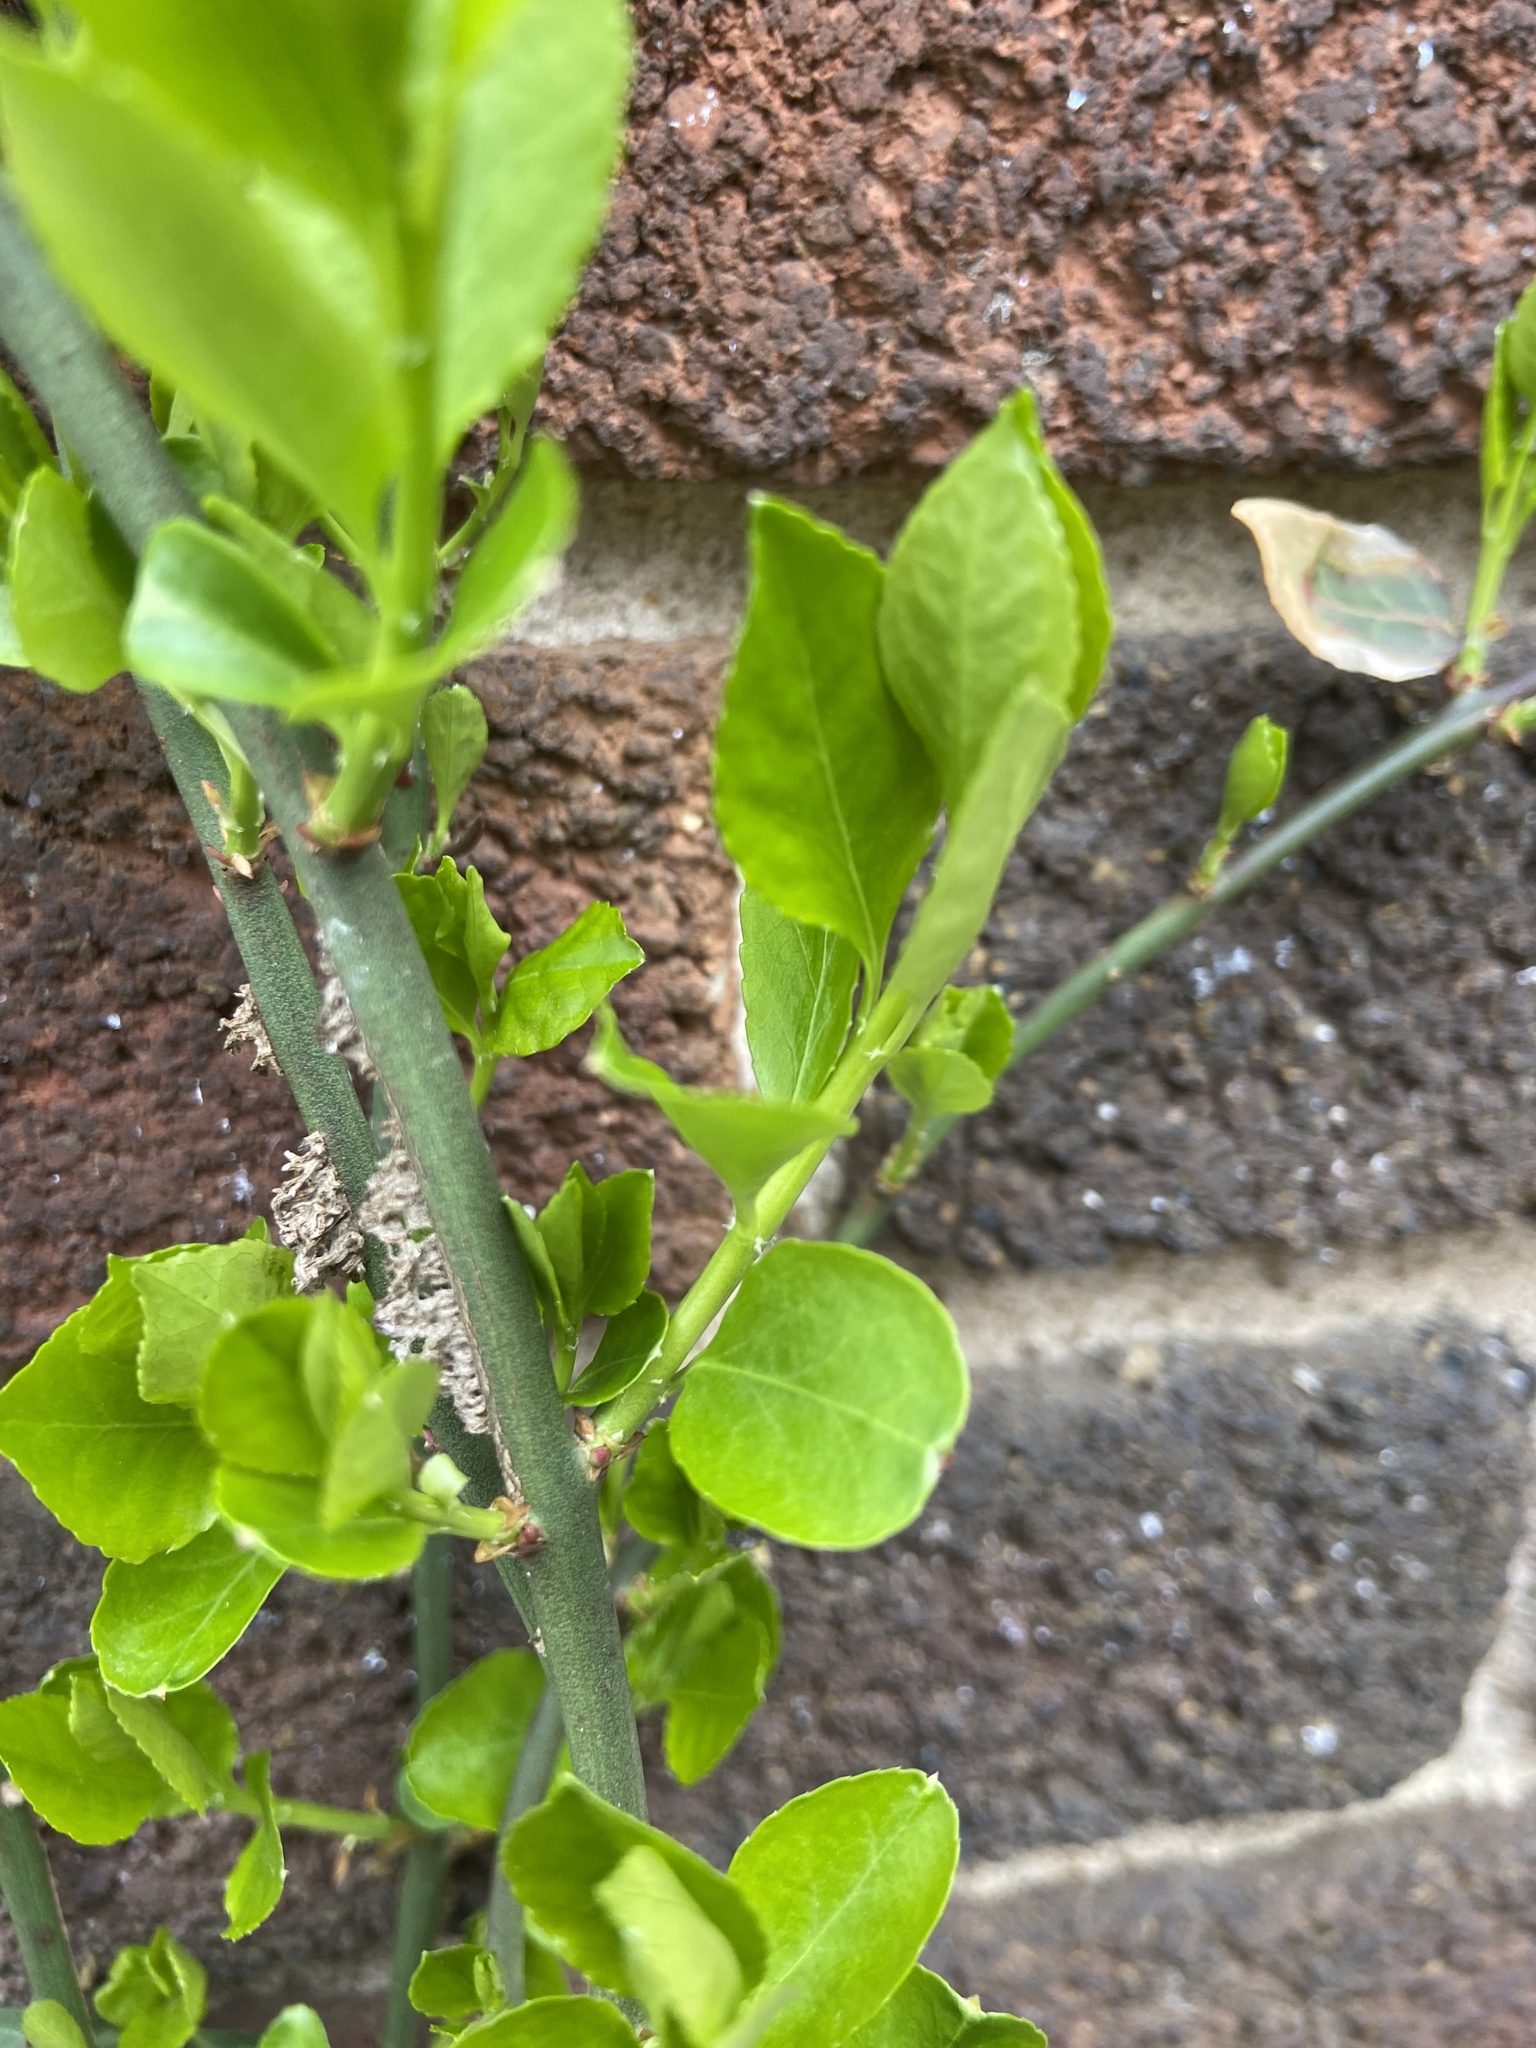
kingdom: Plantae
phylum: Tracheophyta
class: Magnoliopsida
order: Celastrales
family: Celastraceae
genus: Euonymus
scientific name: Euonymus fortunei
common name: Climbing euonymus
